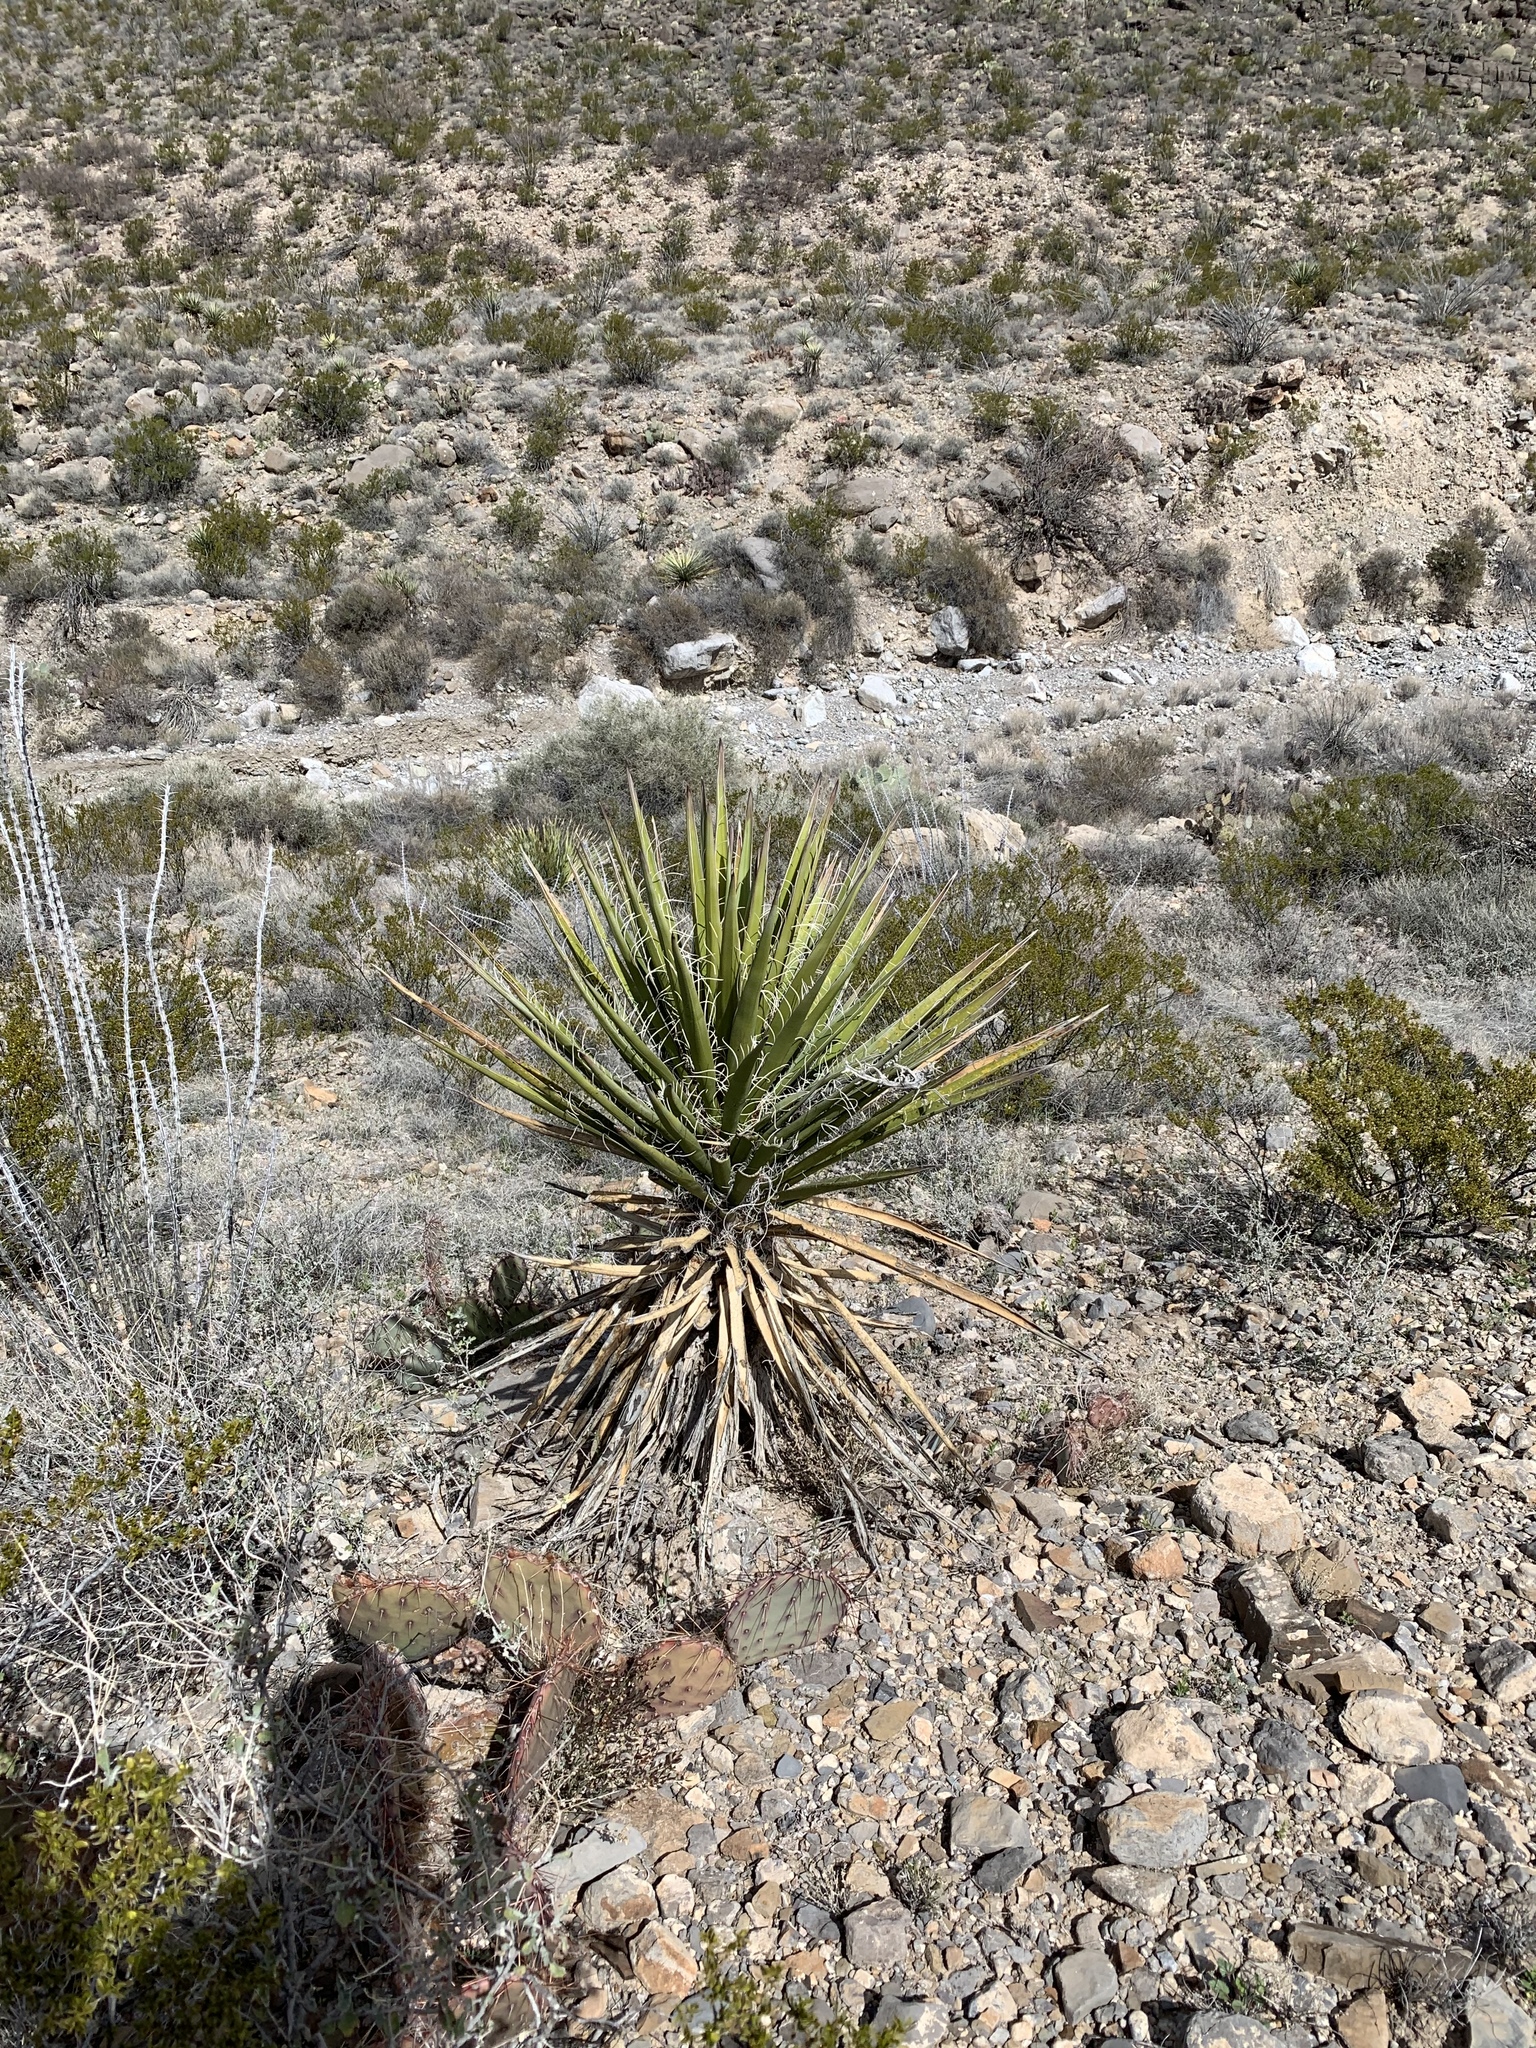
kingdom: Plantae
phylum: Tracheophyta
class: Liliopsida
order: Asparagales
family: Asparagaceae
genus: Yucca
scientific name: Yucca treculiana
